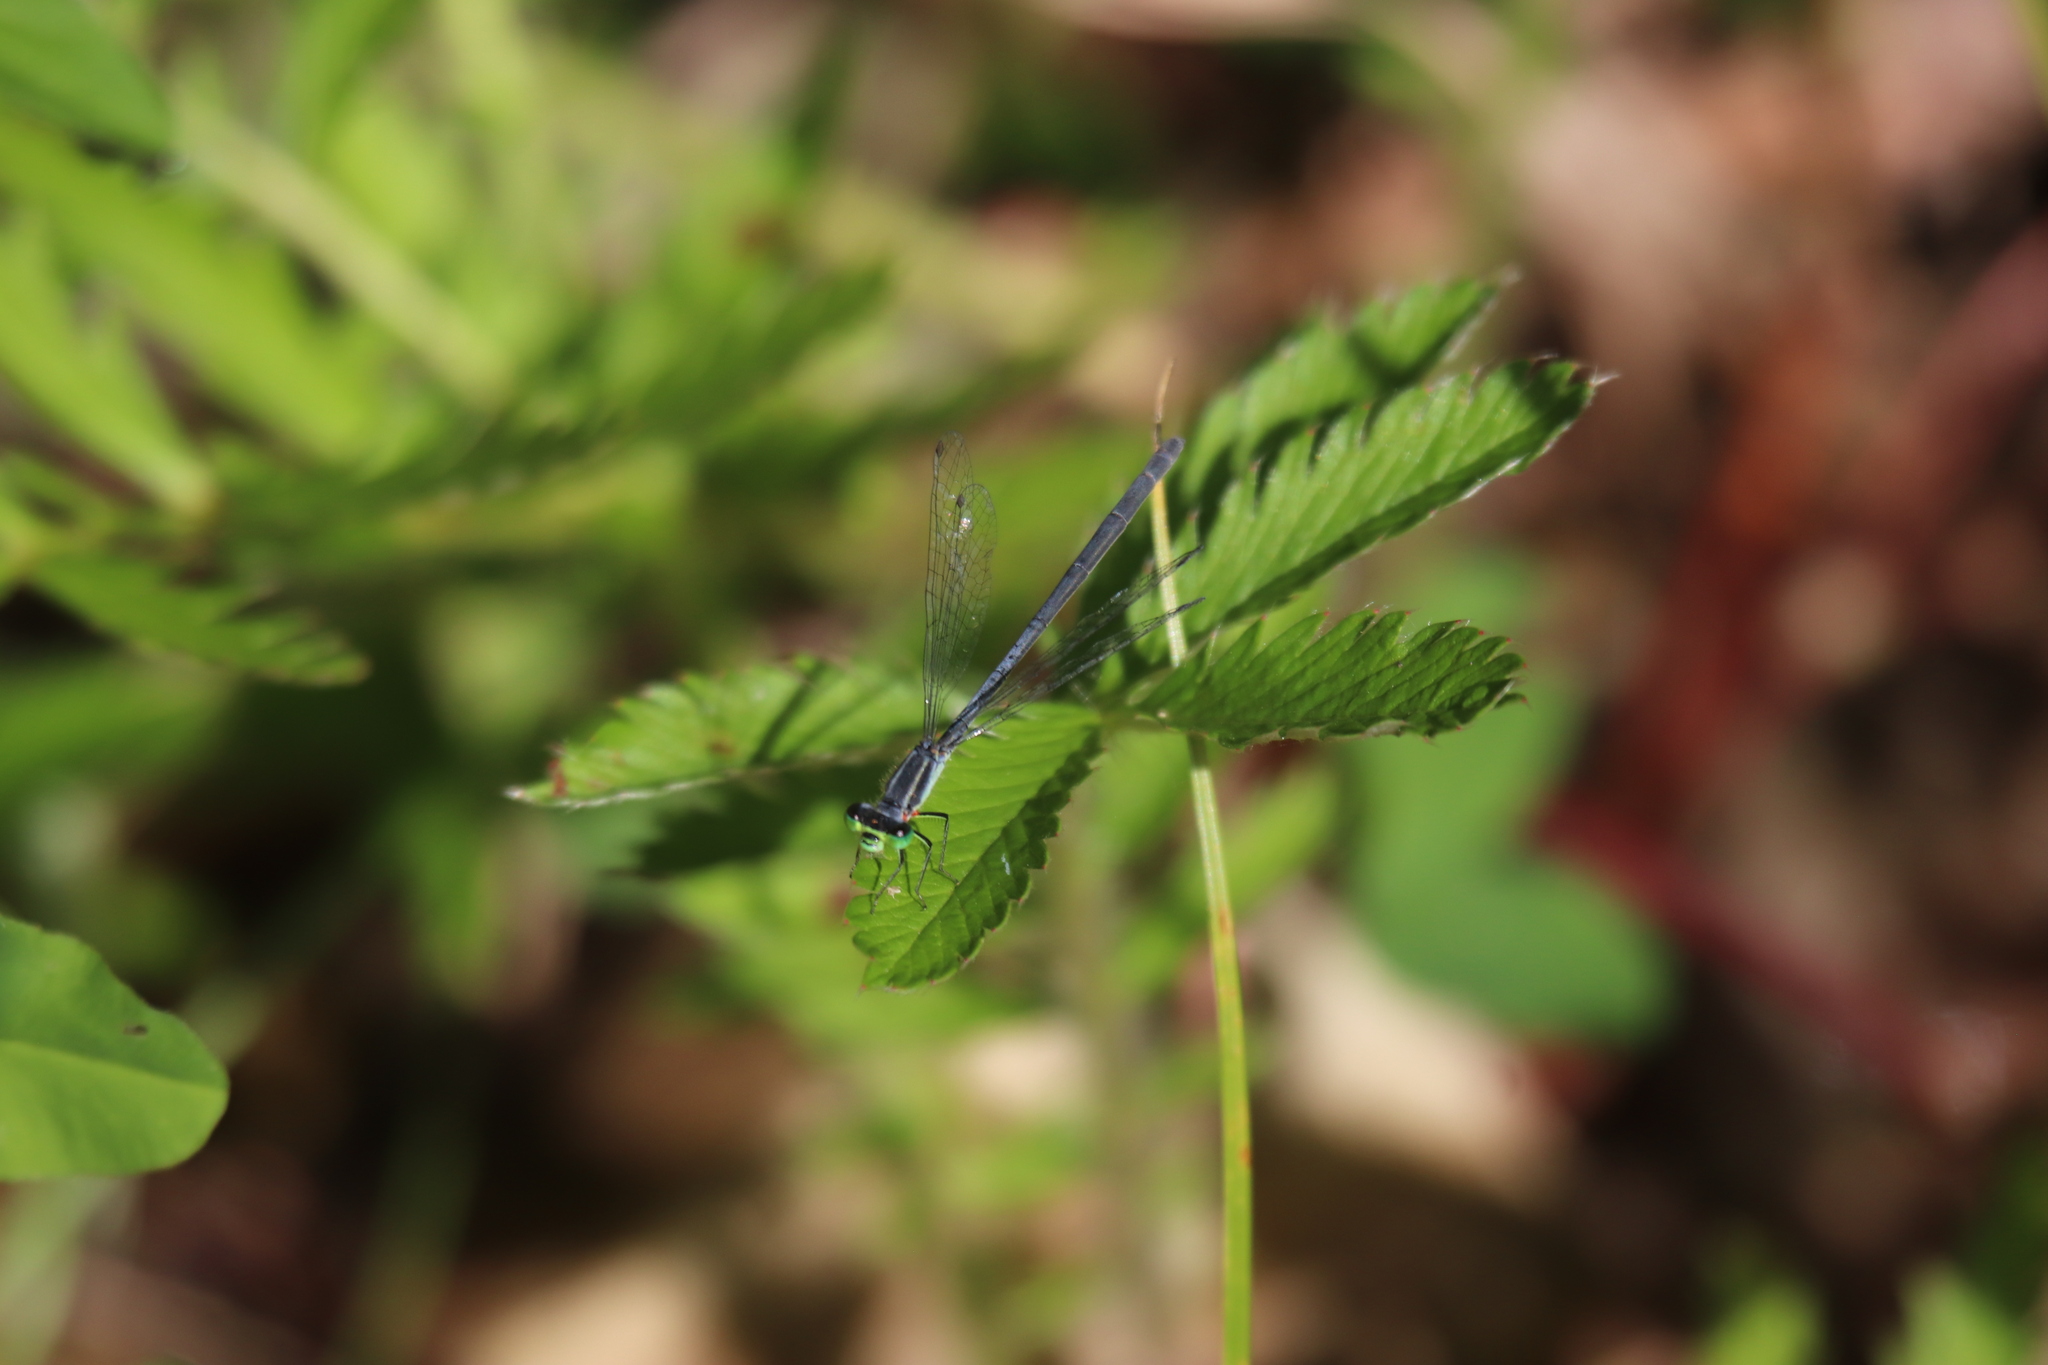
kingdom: Animalia
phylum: Arthropoda
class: Insecta
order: Odonata
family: Coenagrionidae
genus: Ischnura
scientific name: Ischnura verticalis
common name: Eastern forktail
